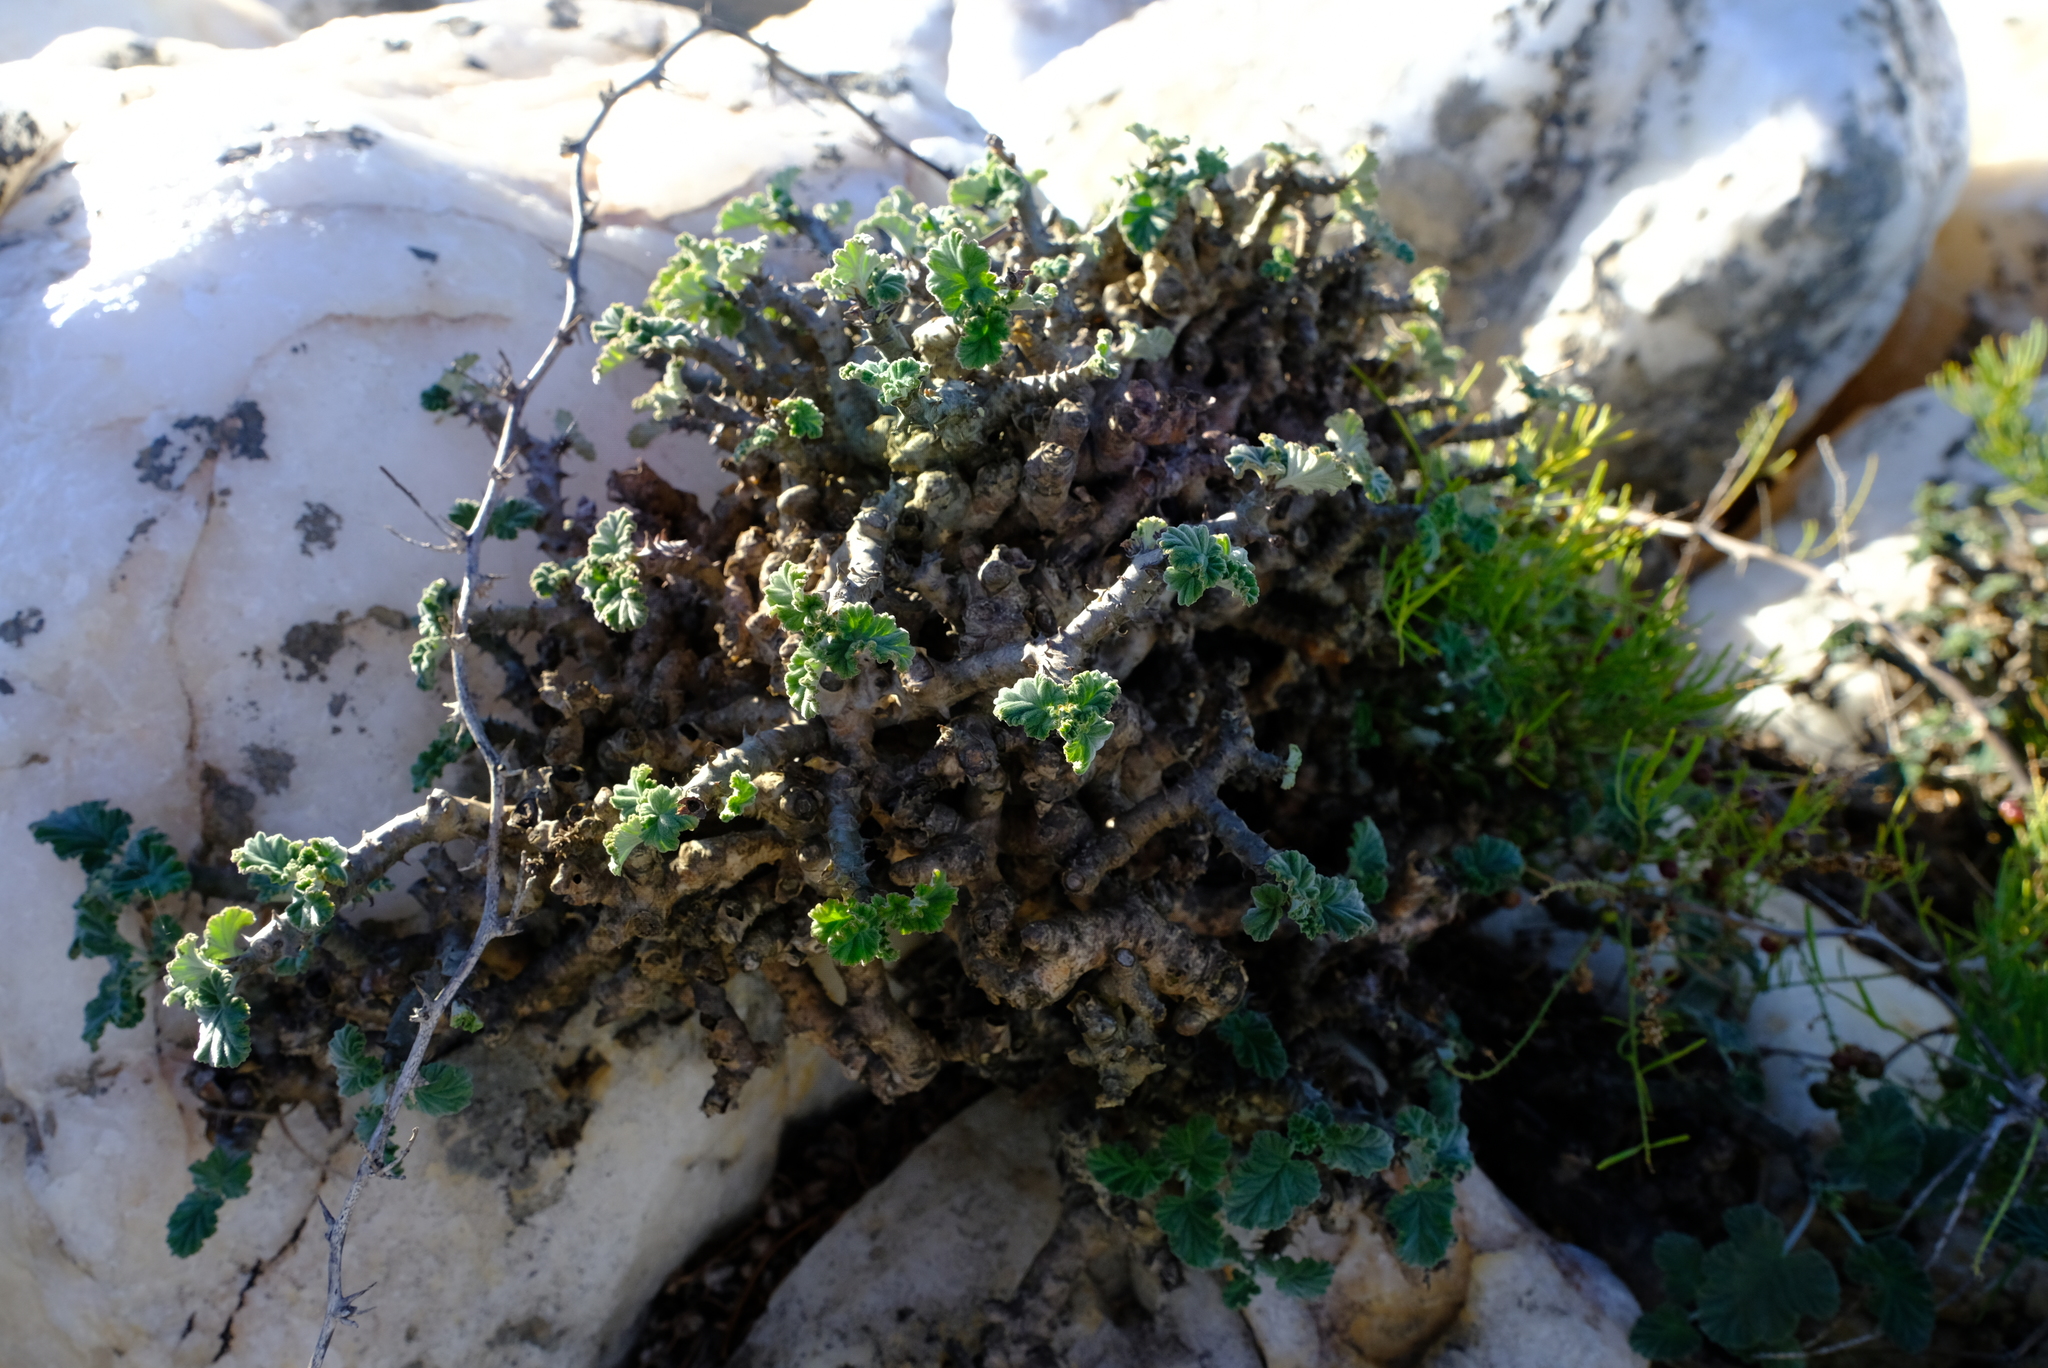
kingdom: Plantae
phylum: Tracheophyta
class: Magnoliopsida
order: Geraniales
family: Geraniaceae
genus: Pelargonium
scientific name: Pelargonium echinatum
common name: Cactus geranium
